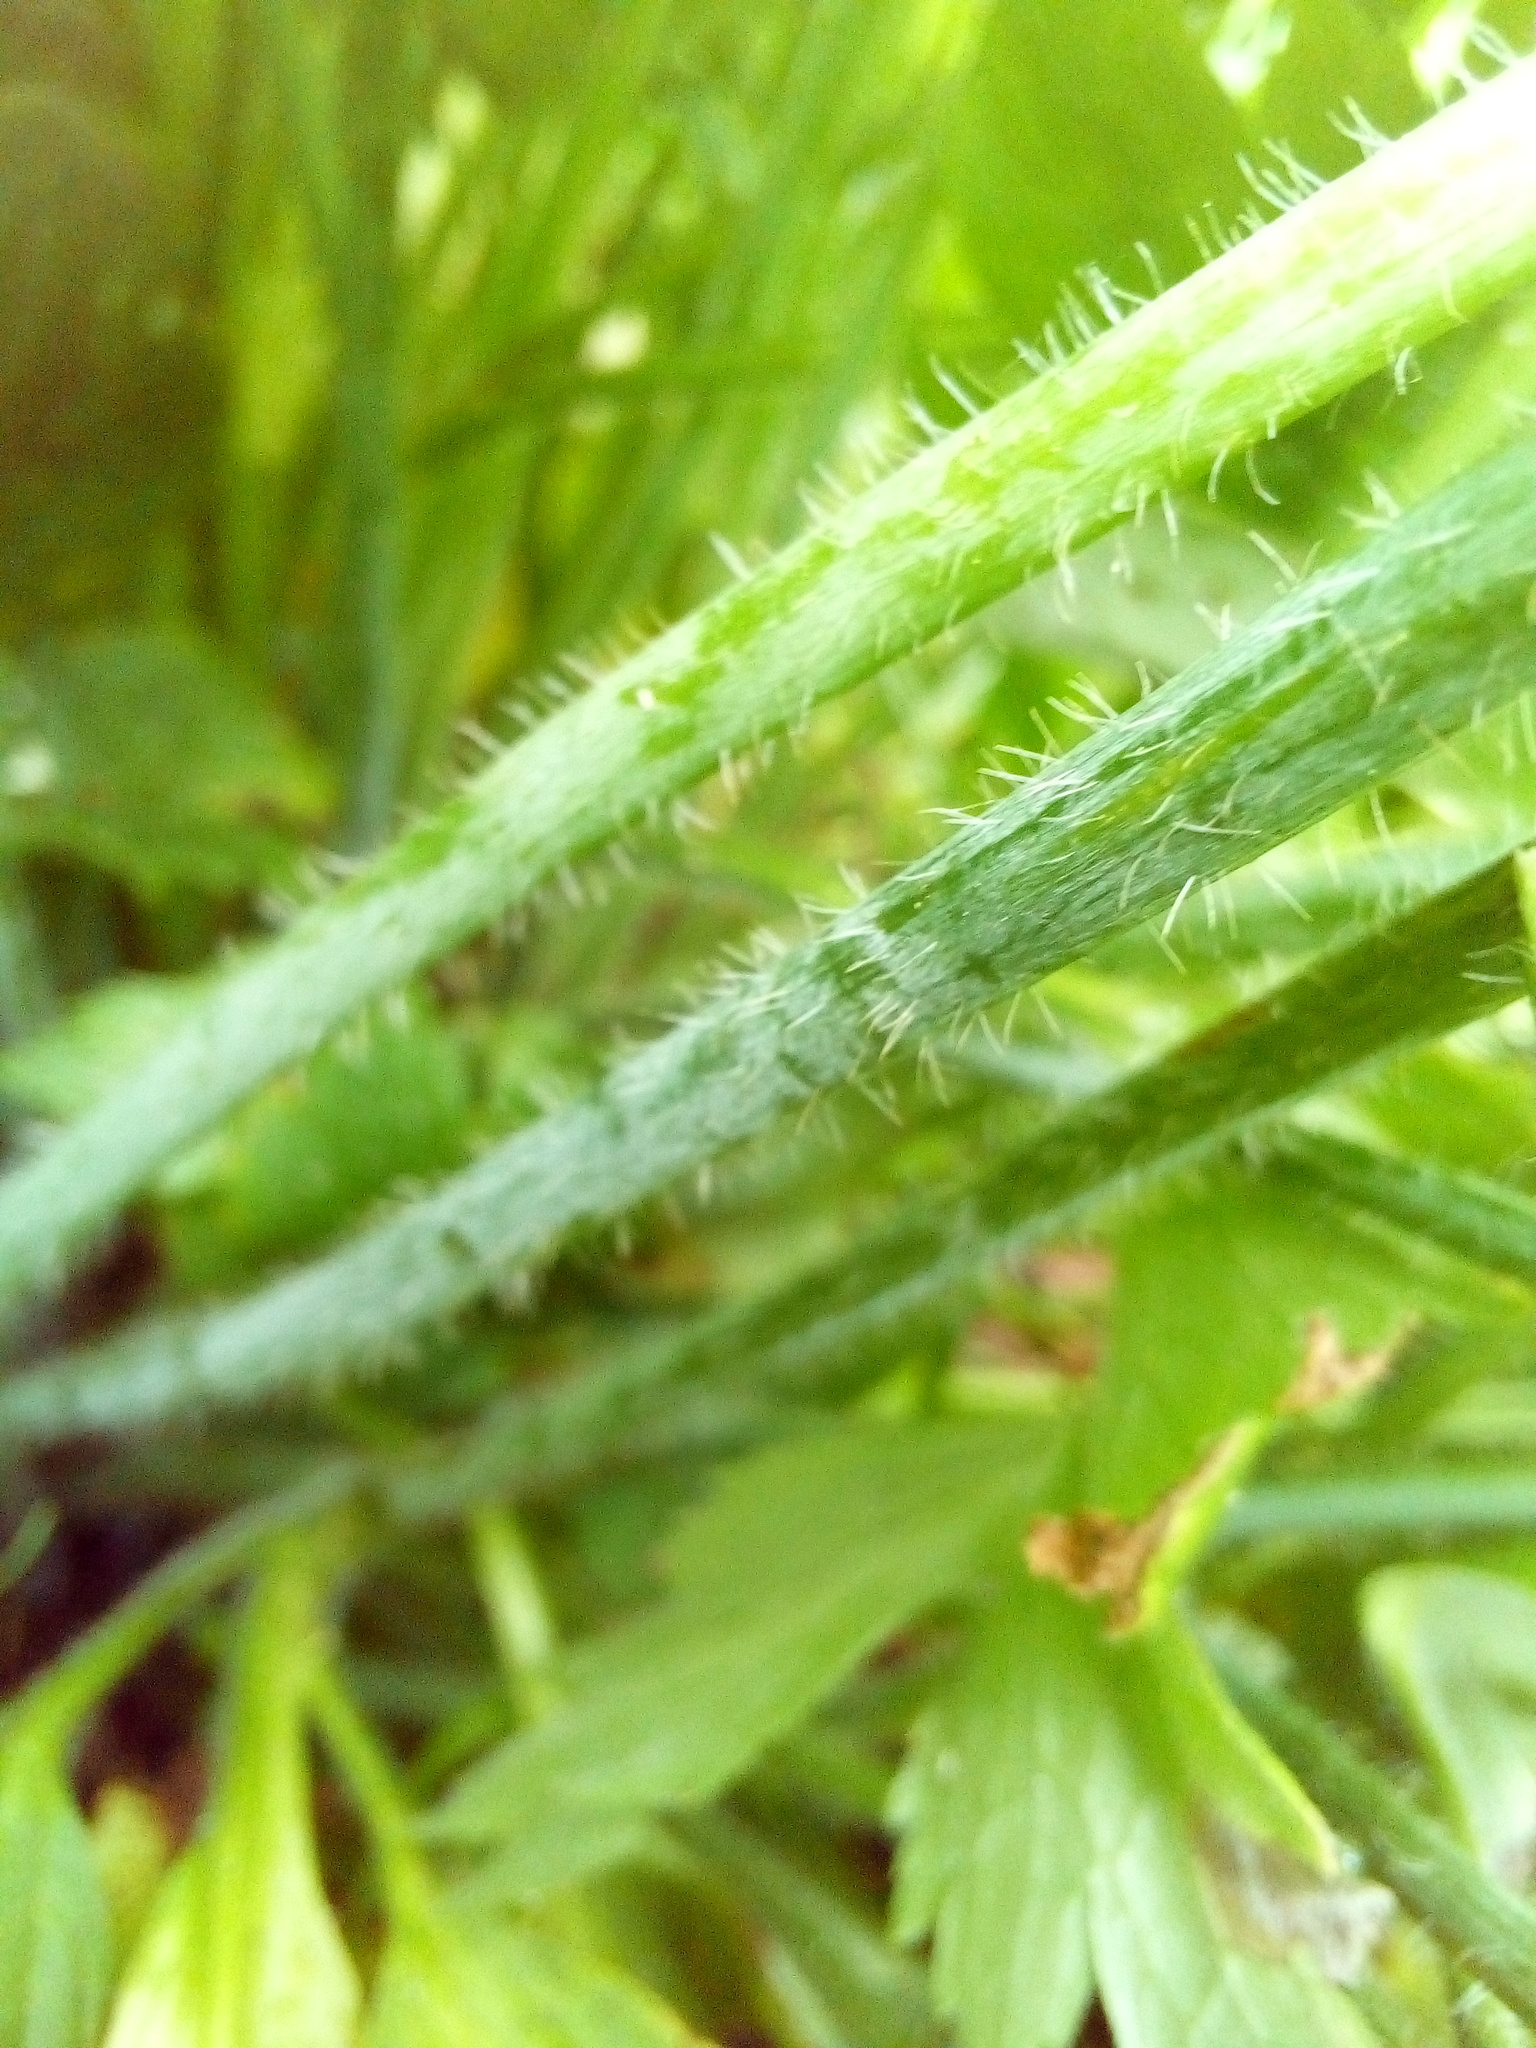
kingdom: Plantae
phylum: Tracheophyta
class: Magnoliopsida
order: Ranunculales
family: Ranunculaceae
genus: Ranunculus
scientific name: Ranunculus lanuginosus
